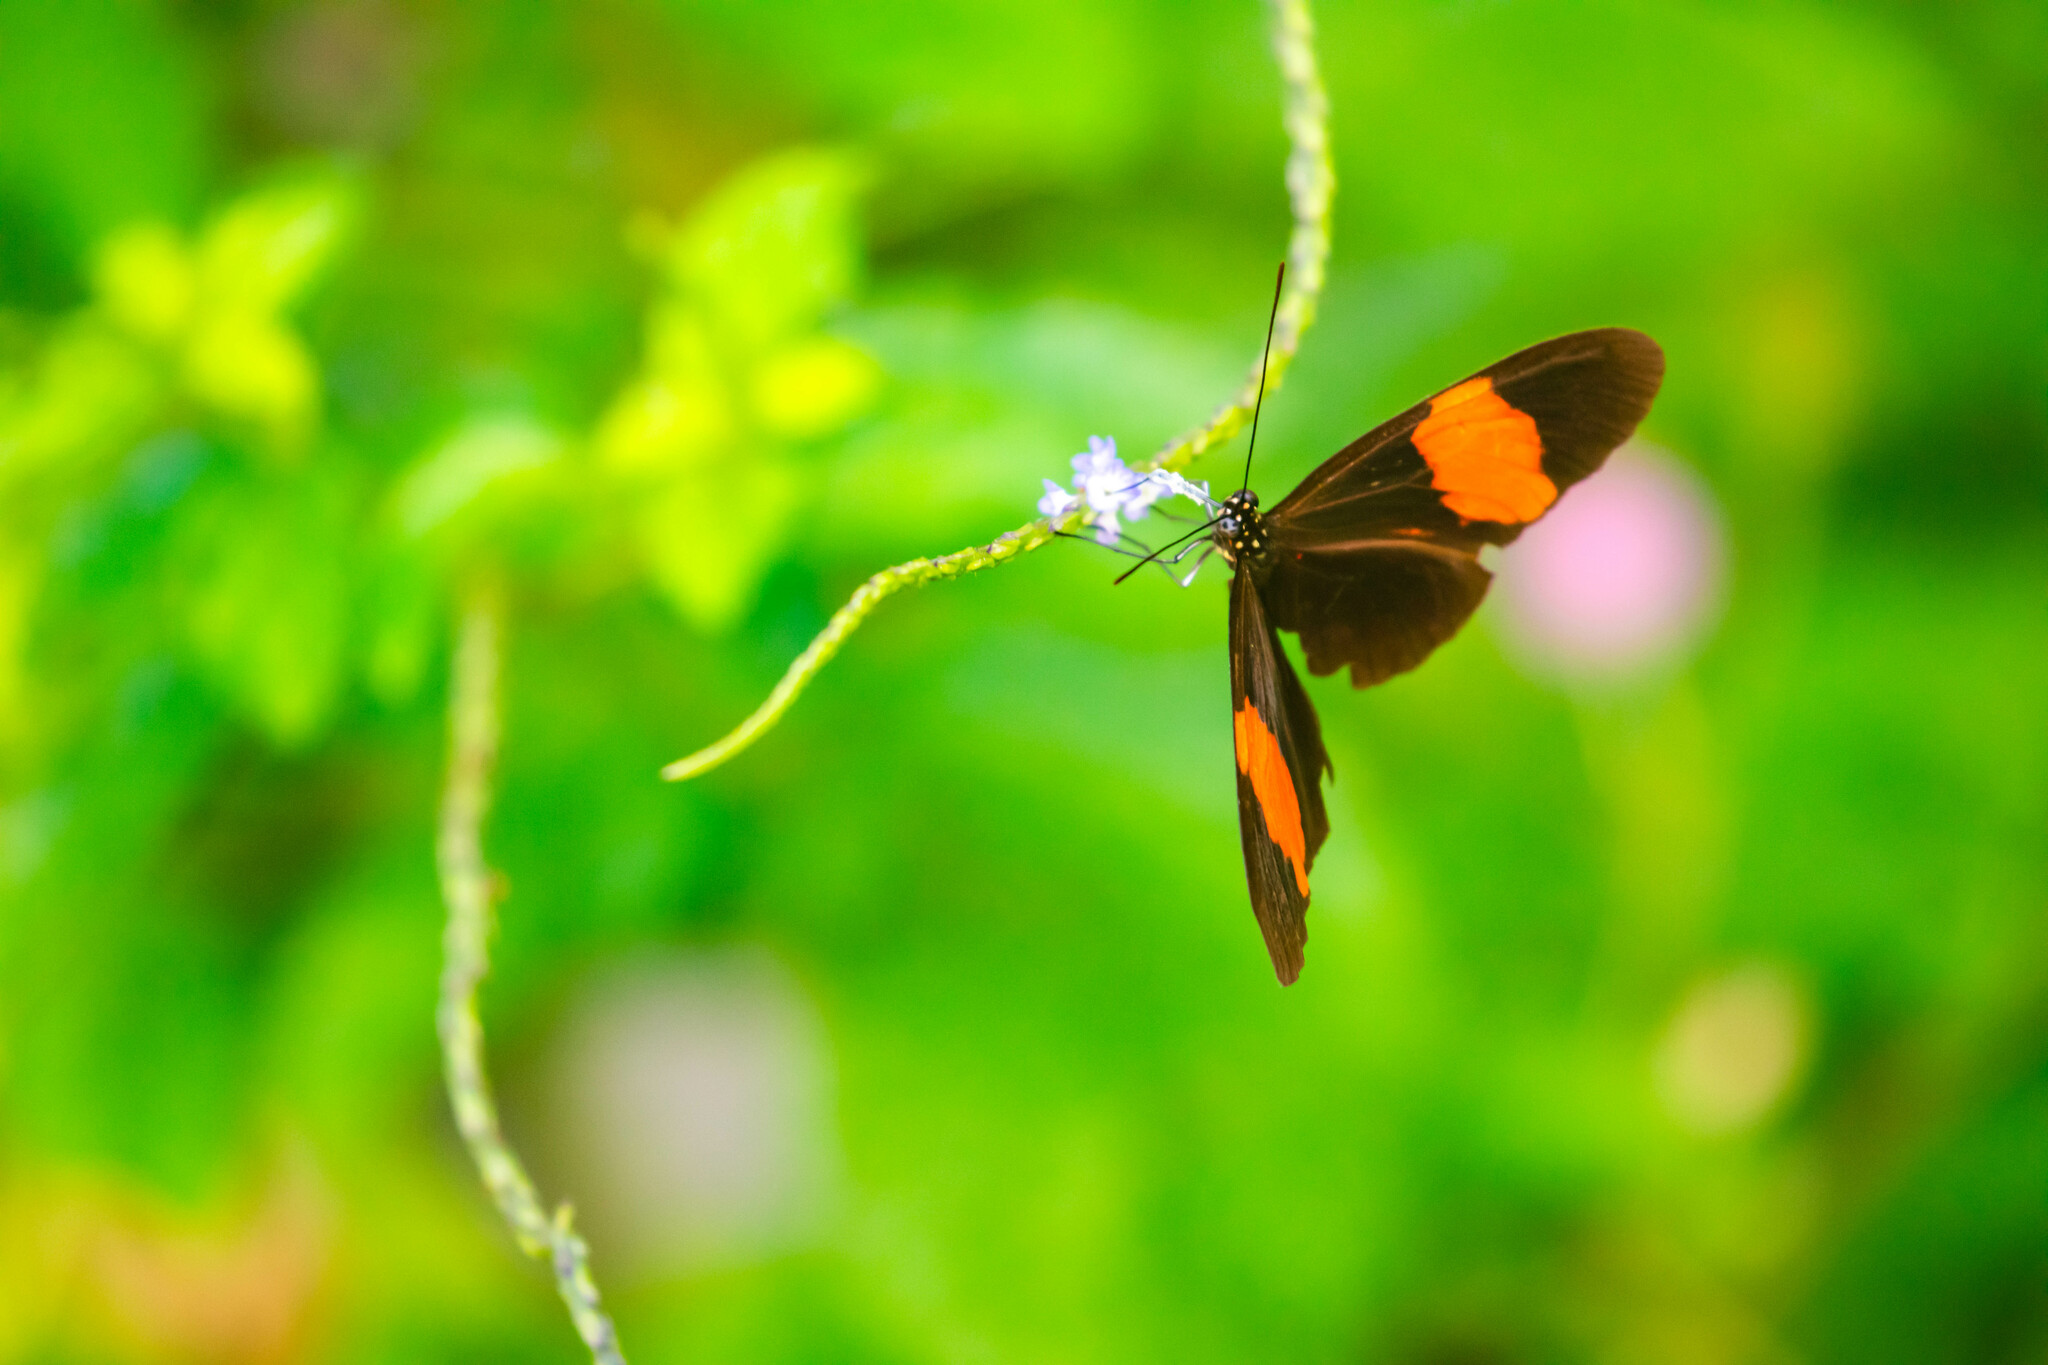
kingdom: Animalia
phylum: Arthropoda
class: Insecta
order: Lepidoptera
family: Nymphalidae
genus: Heliconius
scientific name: Heliconius erato
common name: Common patch longwing
